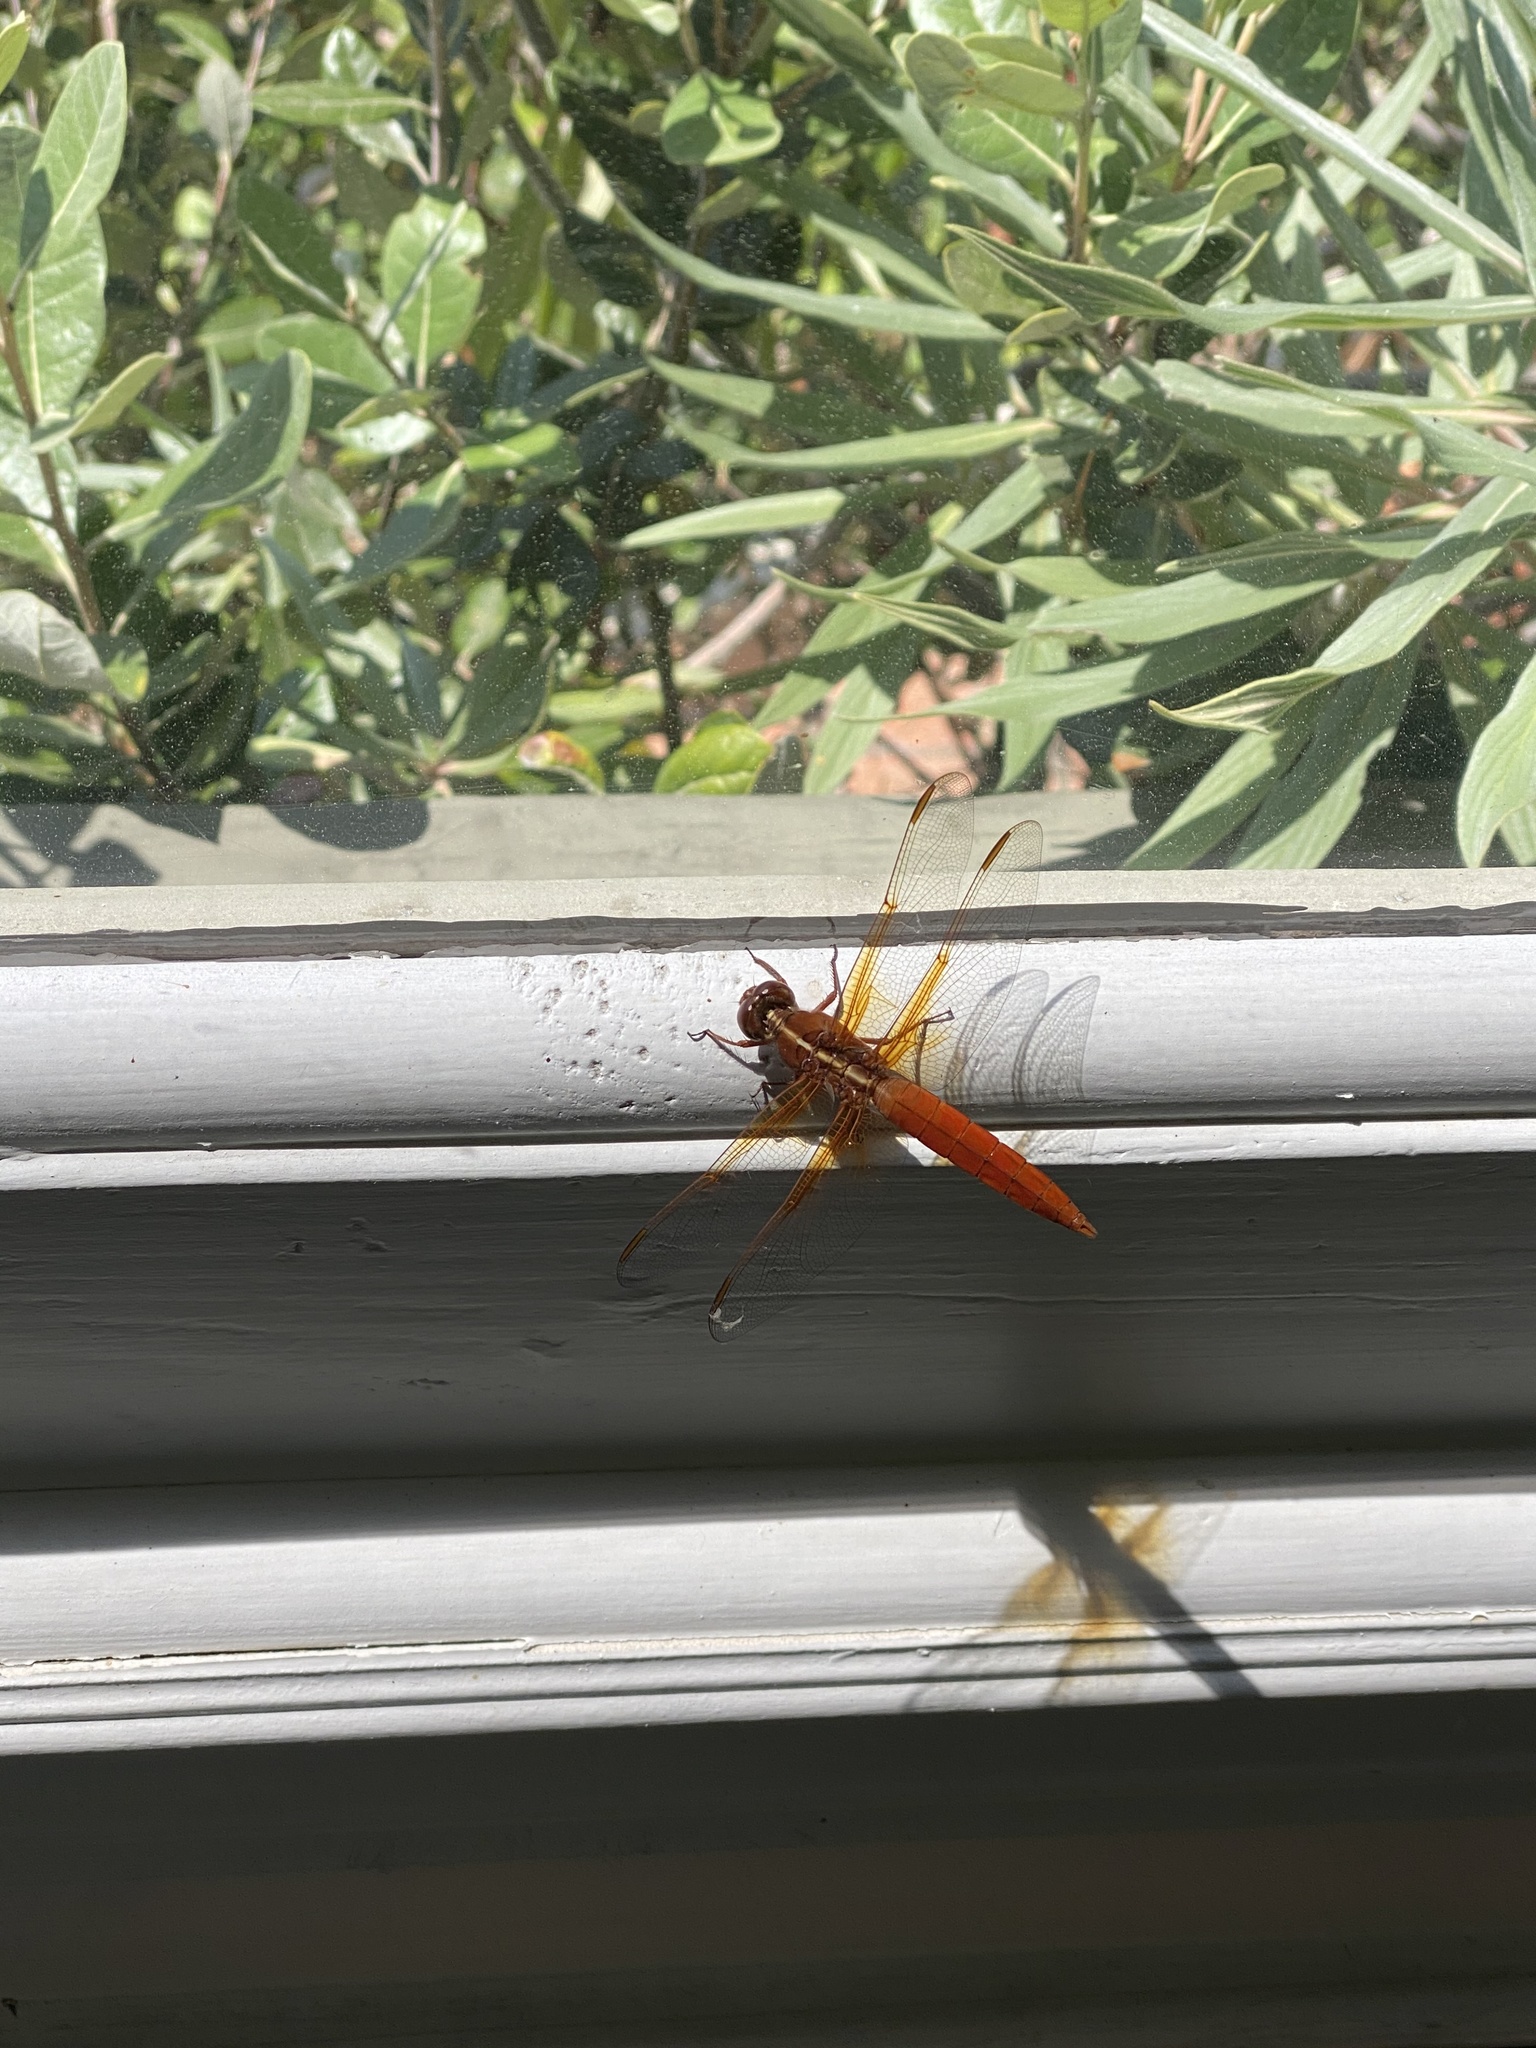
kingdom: Animalia
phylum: Arthropoda
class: Insecta
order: Odonata
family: Libellulidae
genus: Libellula
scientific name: Libellula croceipennis
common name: Neon skimmer
